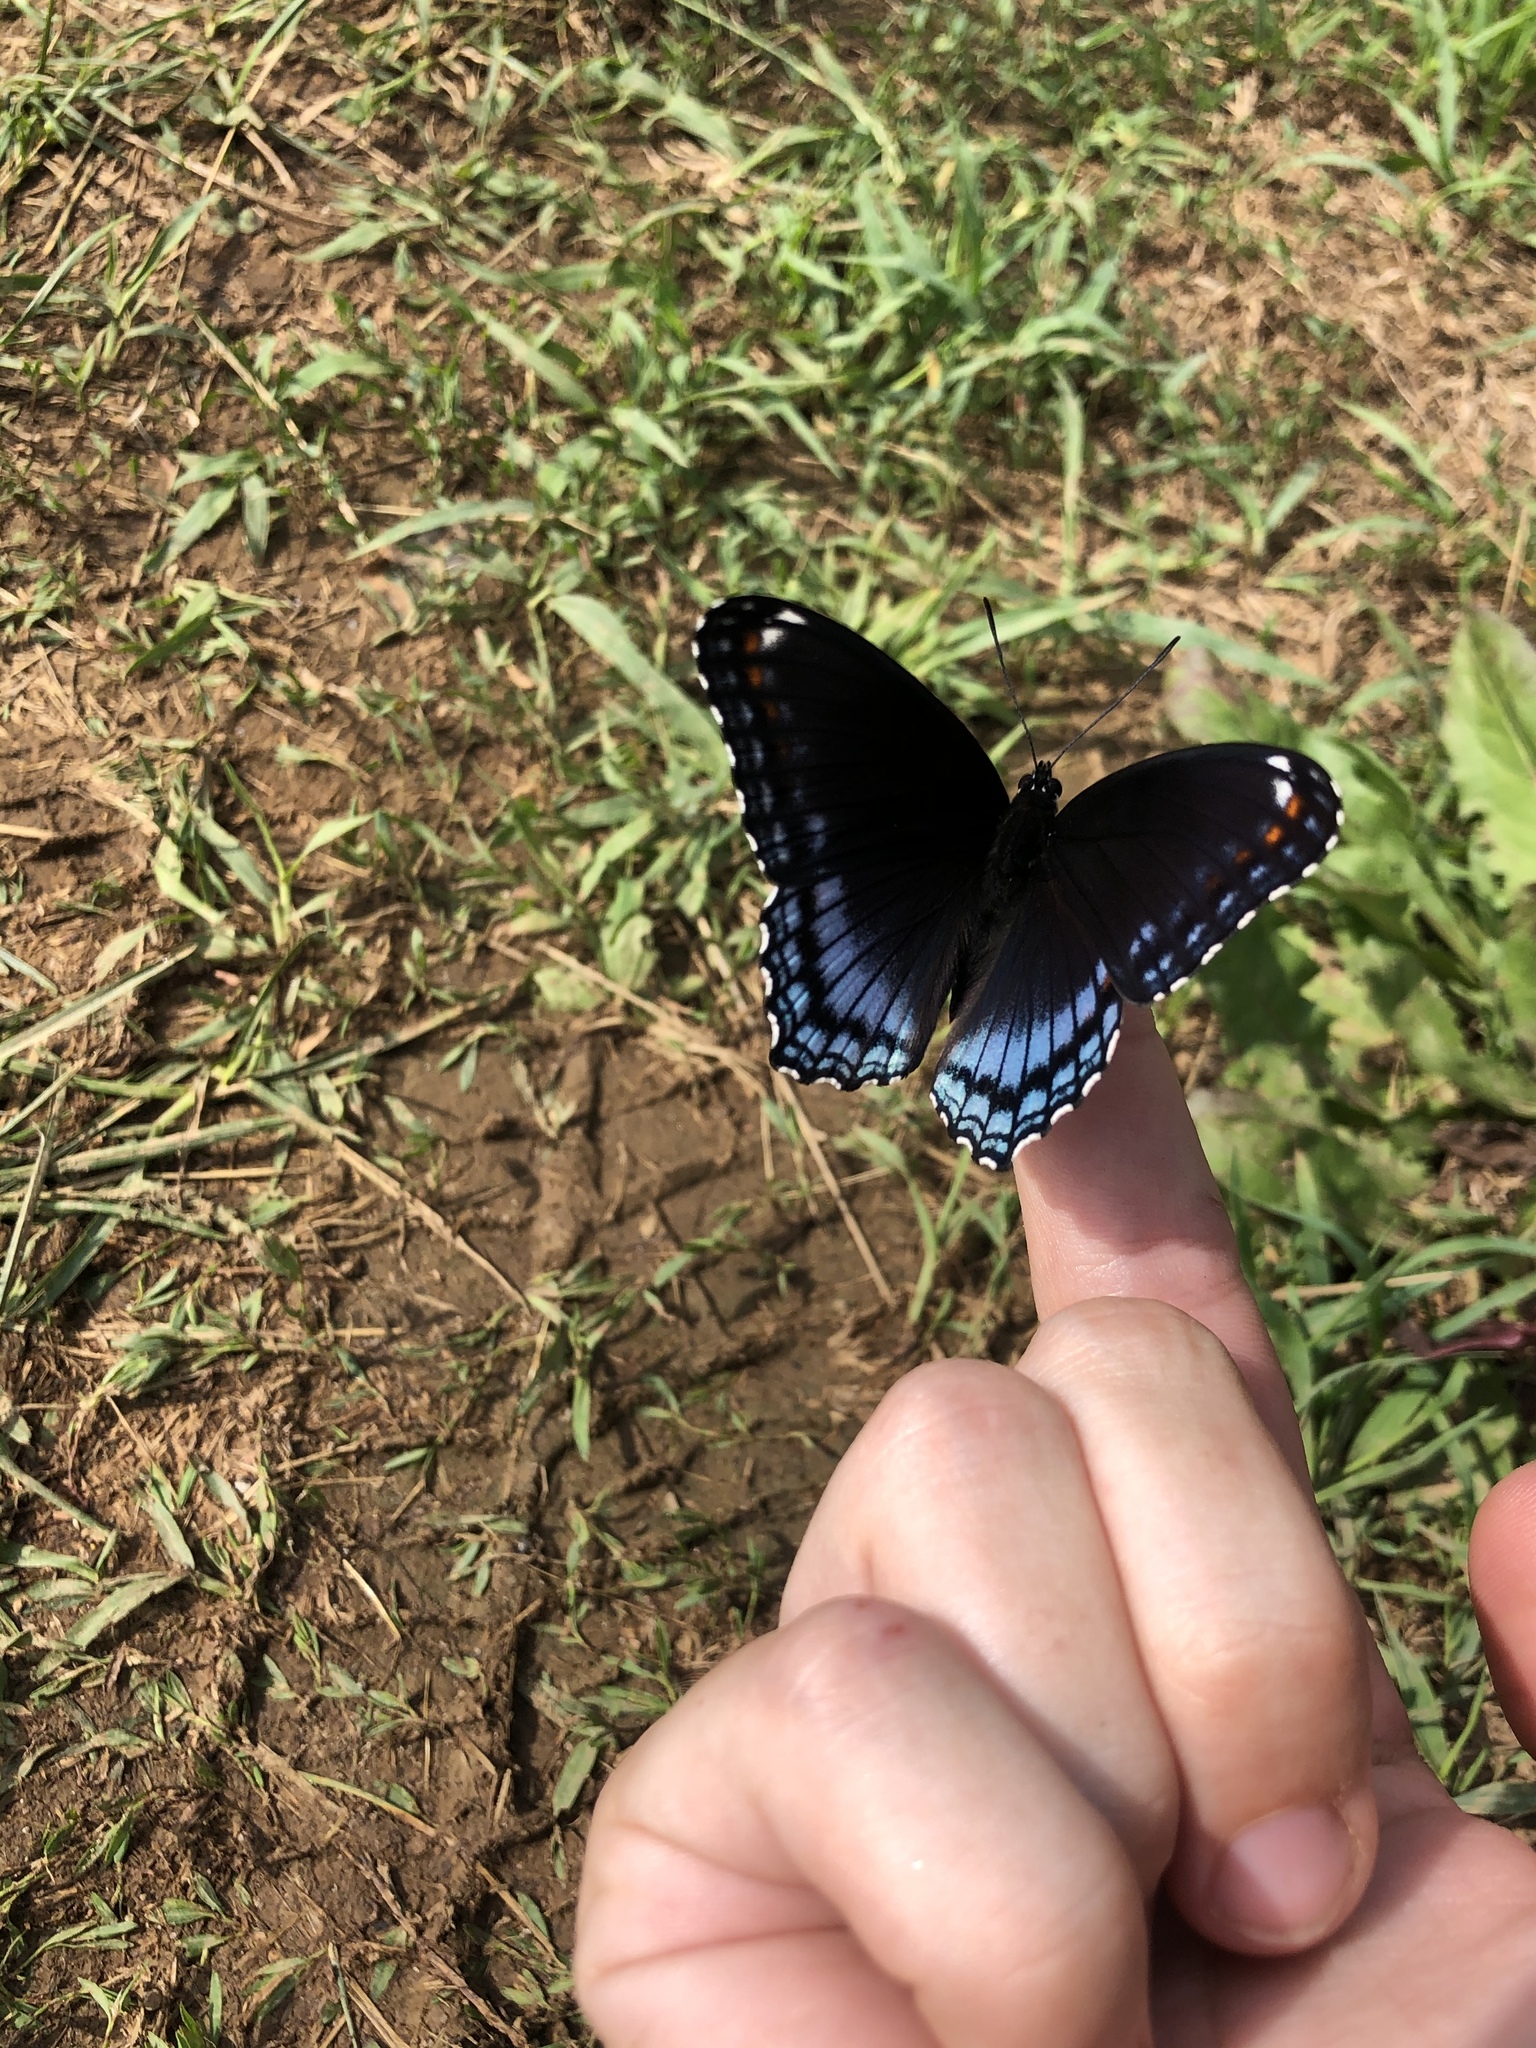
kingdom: Animalia
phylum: Arthropoda
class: Insecta
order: Lepidoptera
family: Nymphalidae
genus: Limenitis
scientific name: Limenitis arthemis
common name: Red-spotted admiral
